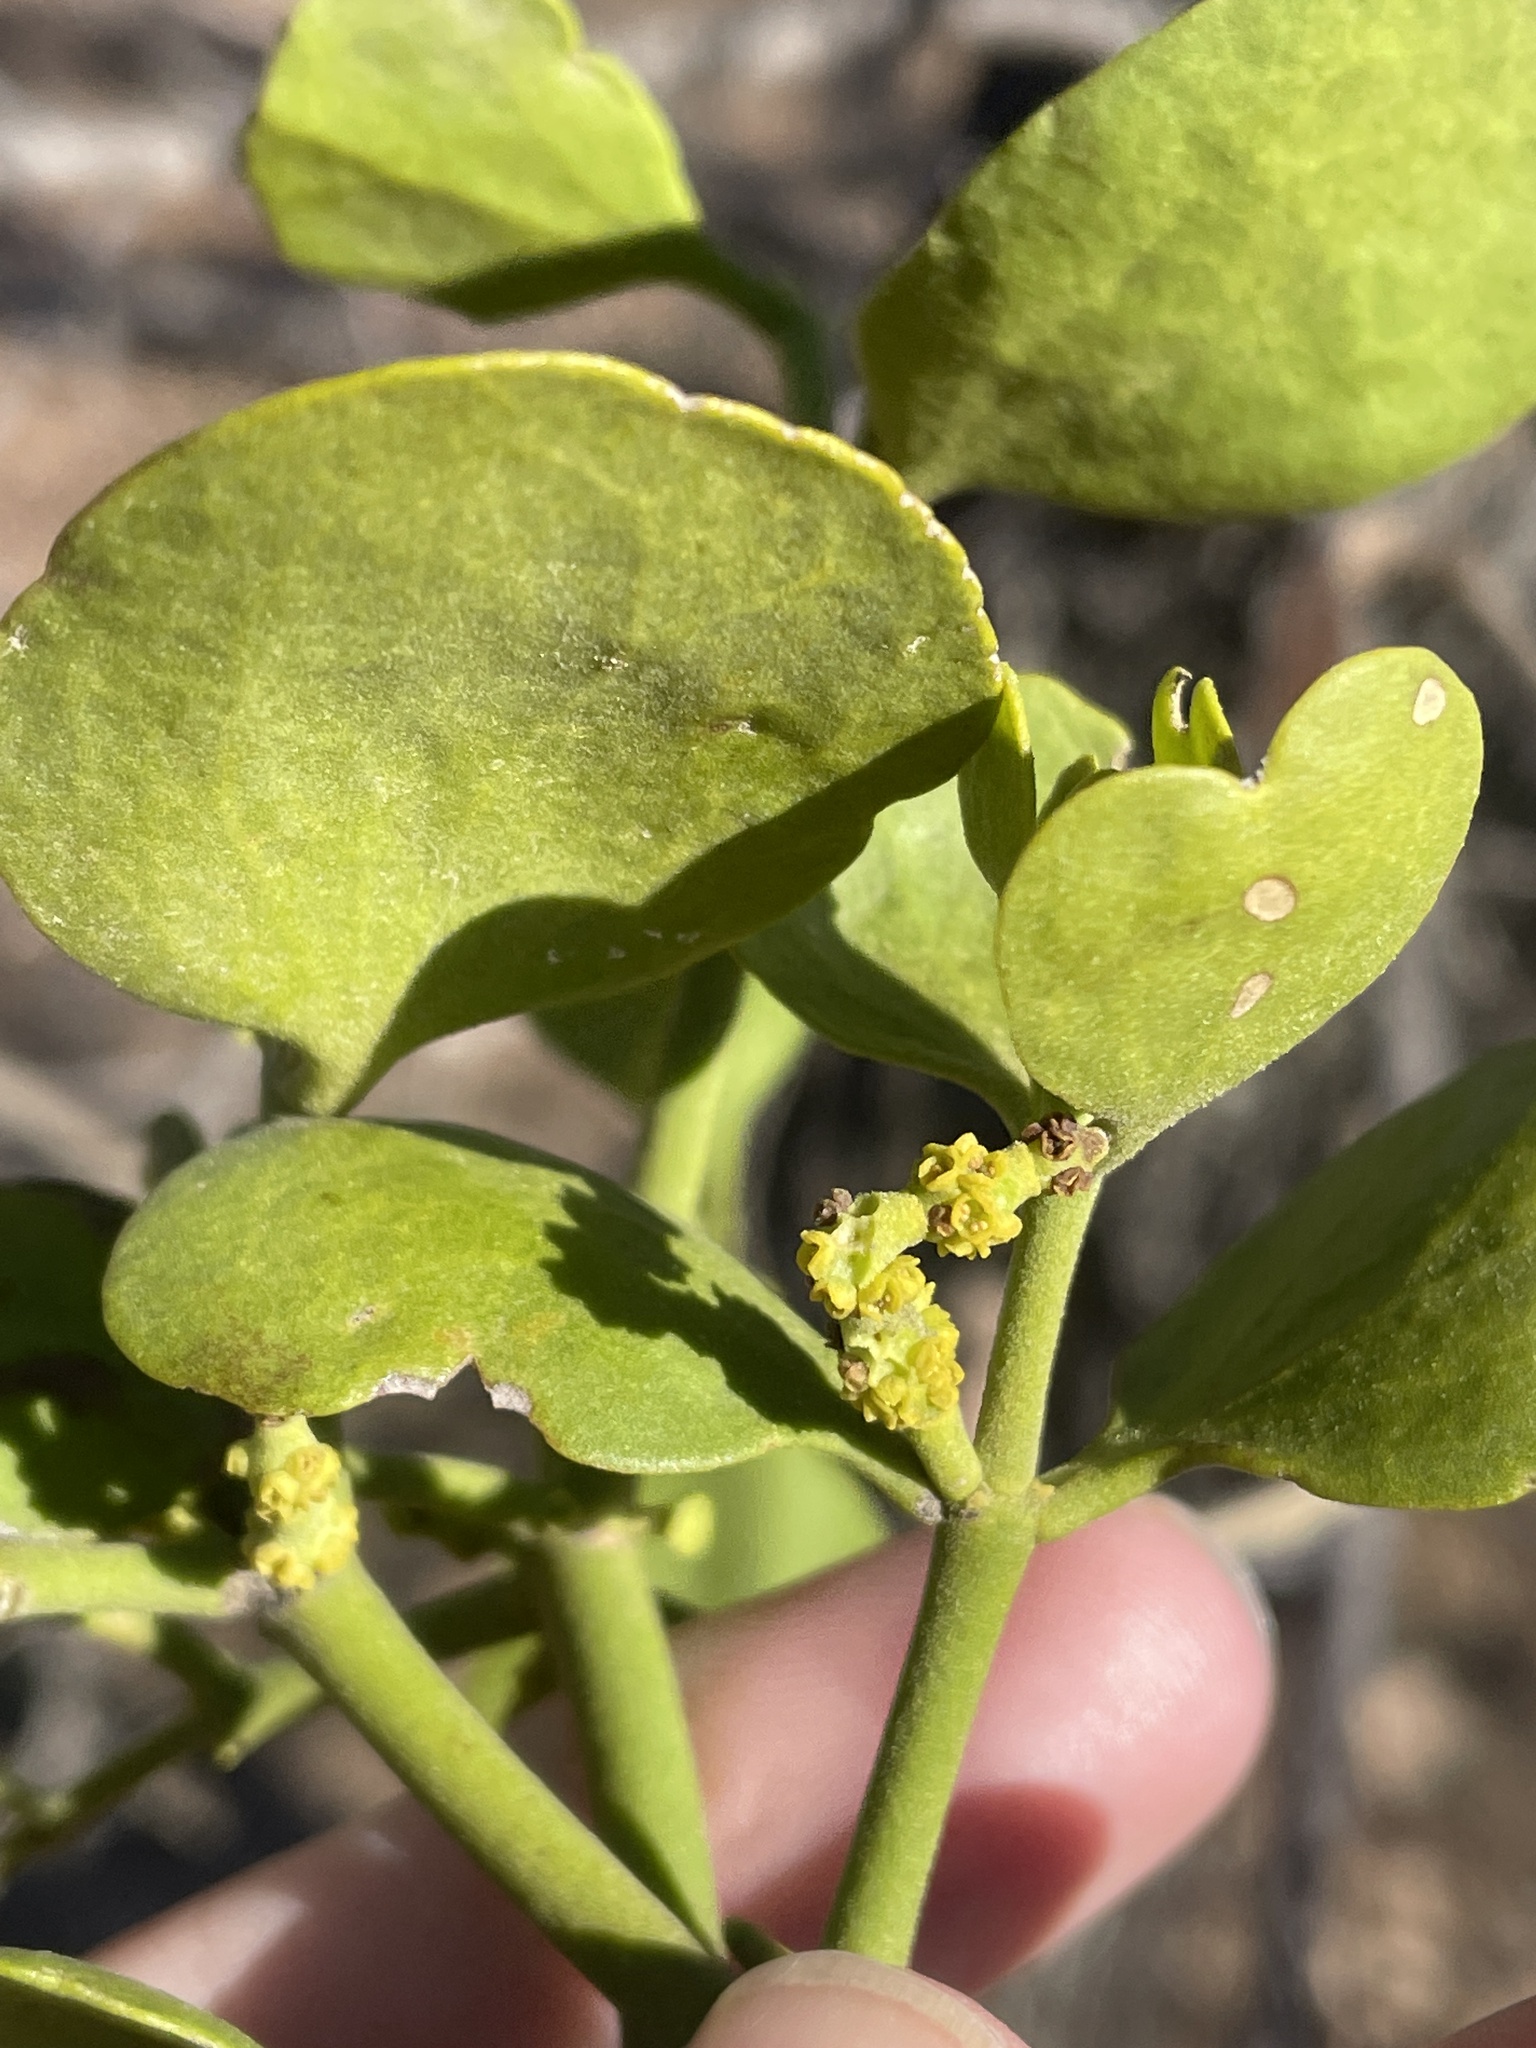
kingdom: Plantae
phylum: Tracheophyta
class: Magnoliopsida
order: Santalales
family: Viscaceae
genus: Phoradendron
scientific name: Phoradendron leucarpum
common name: Pacific mistletoe
